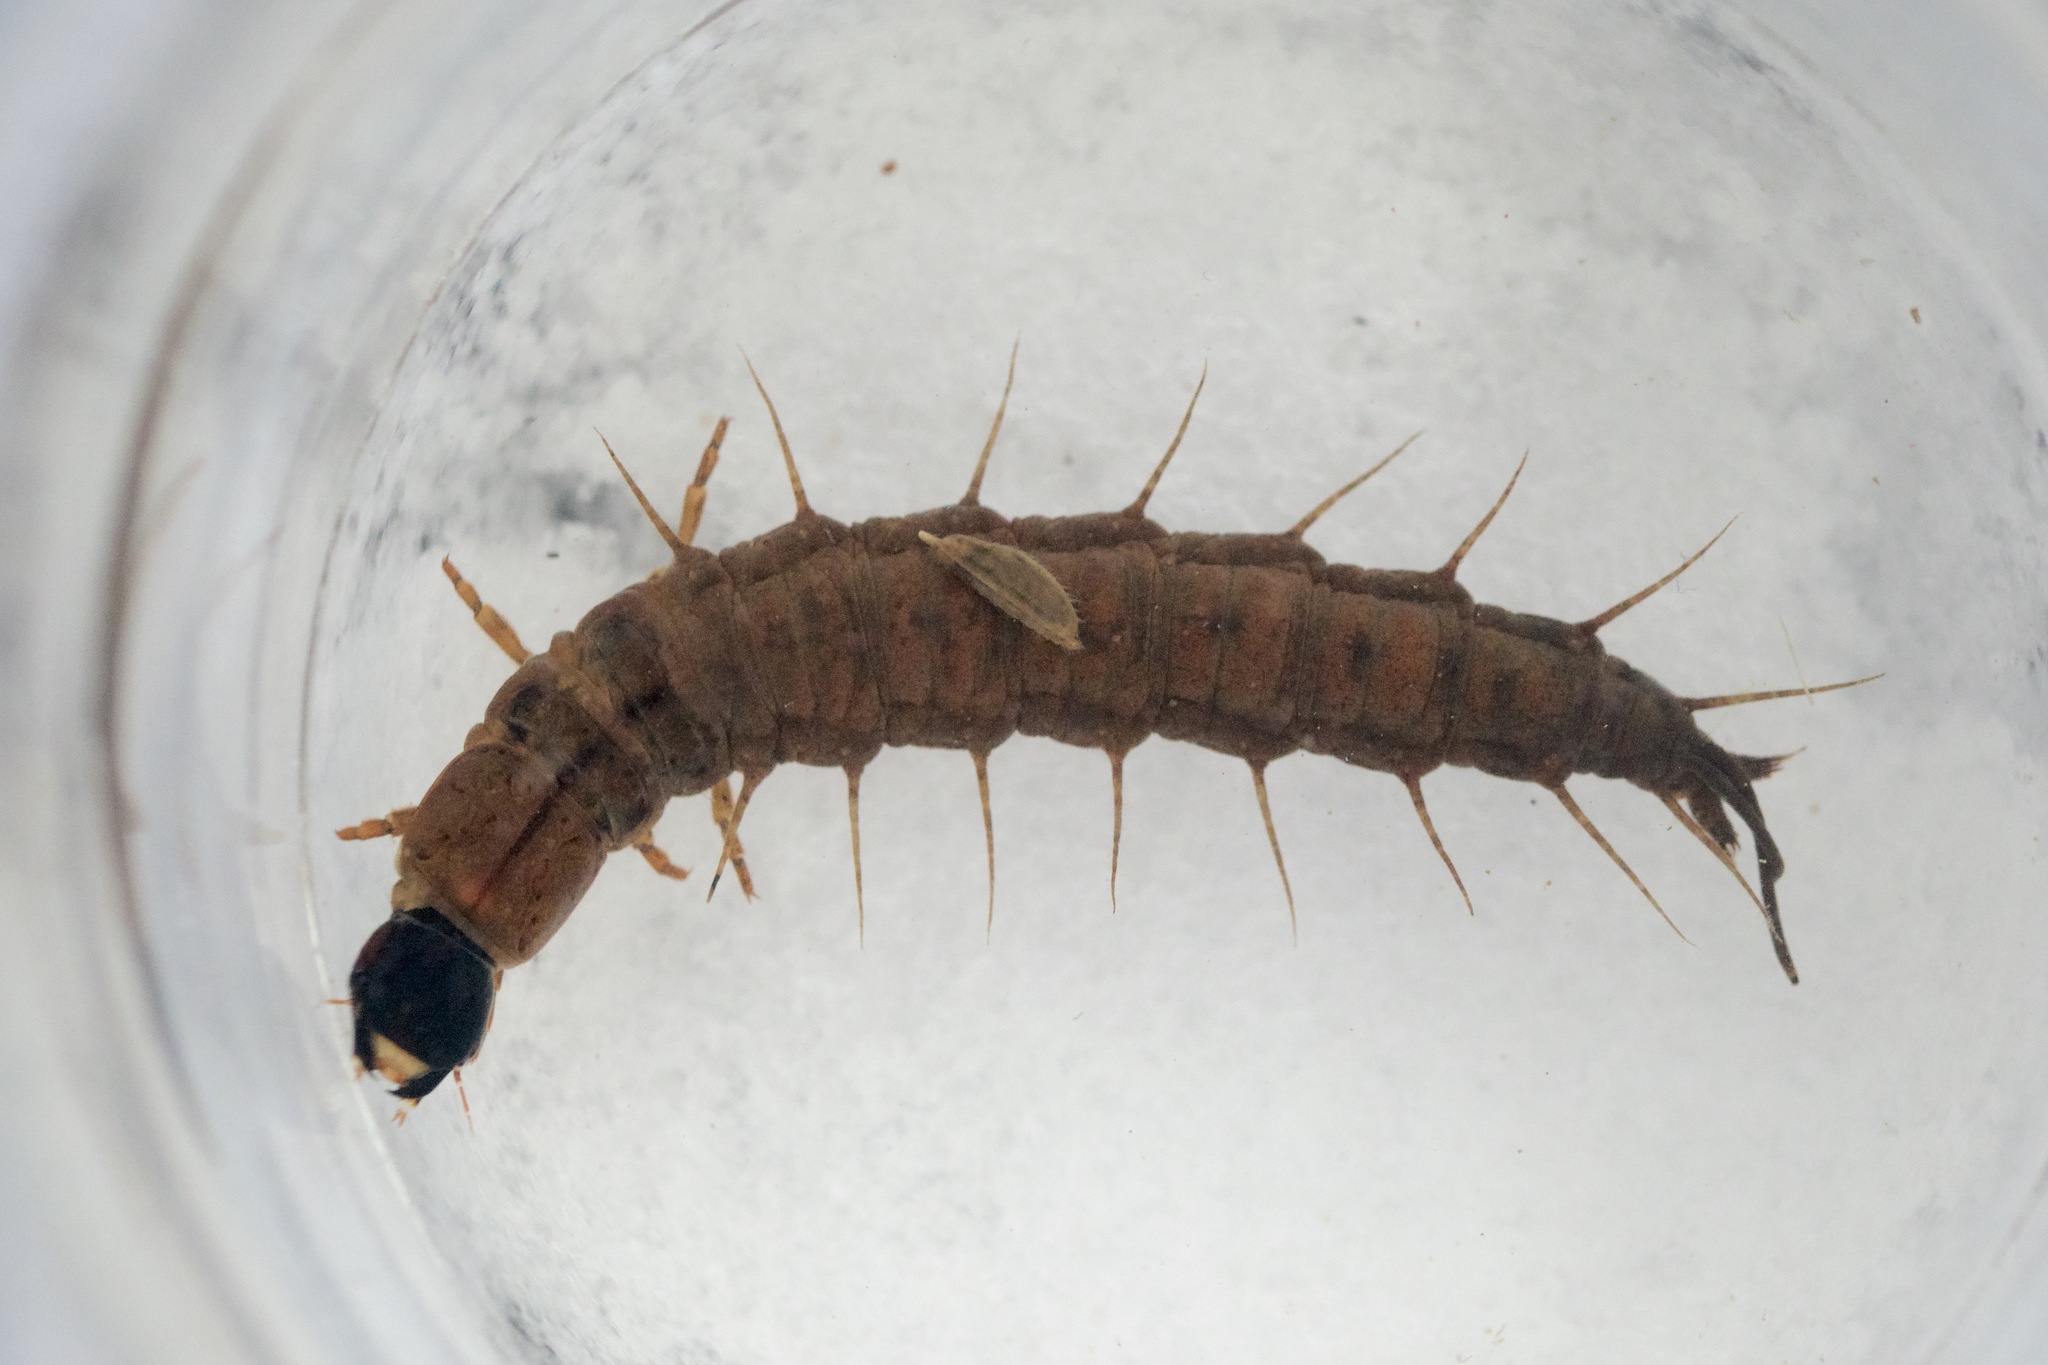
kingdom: Animalia
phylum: Arthropoda
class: Insecta
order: Megaloptera
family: Corydalidae
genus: Chauliodes
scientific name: Chauliodes rastricornis
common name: Spring fishfly
